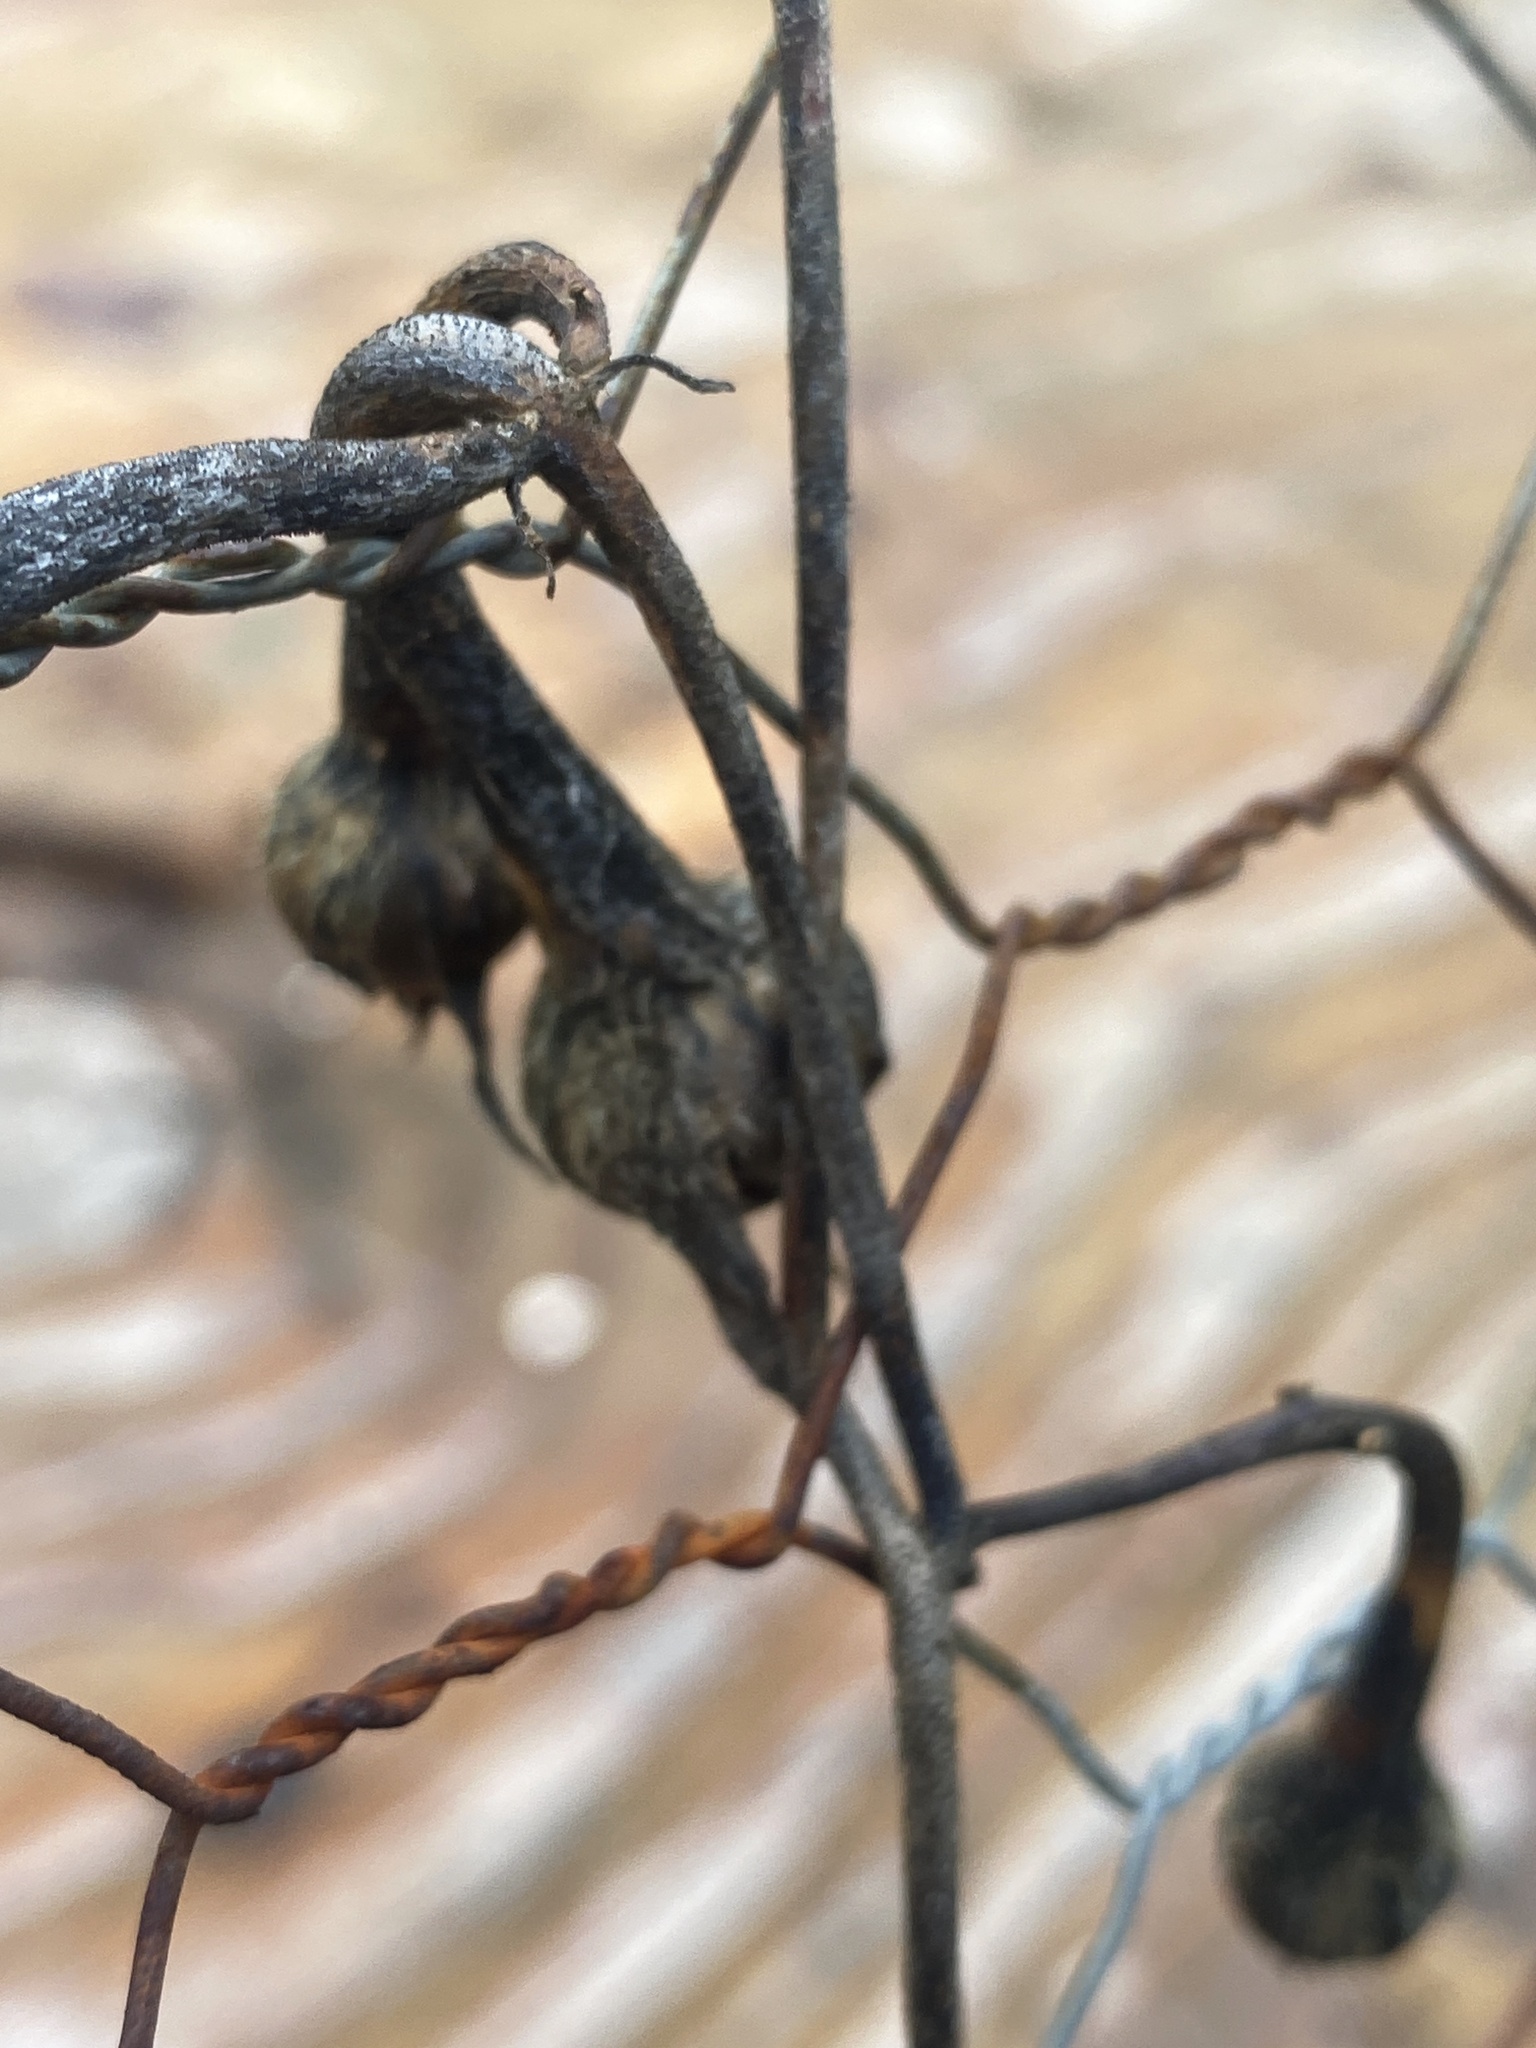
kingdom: Plantae
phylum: Tracheophyta
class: Magnoliopsida
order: Solanales
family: Convolvulaceae
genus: Ipomoea
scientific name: Ipomoea purpurea
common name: Common morning-glory
